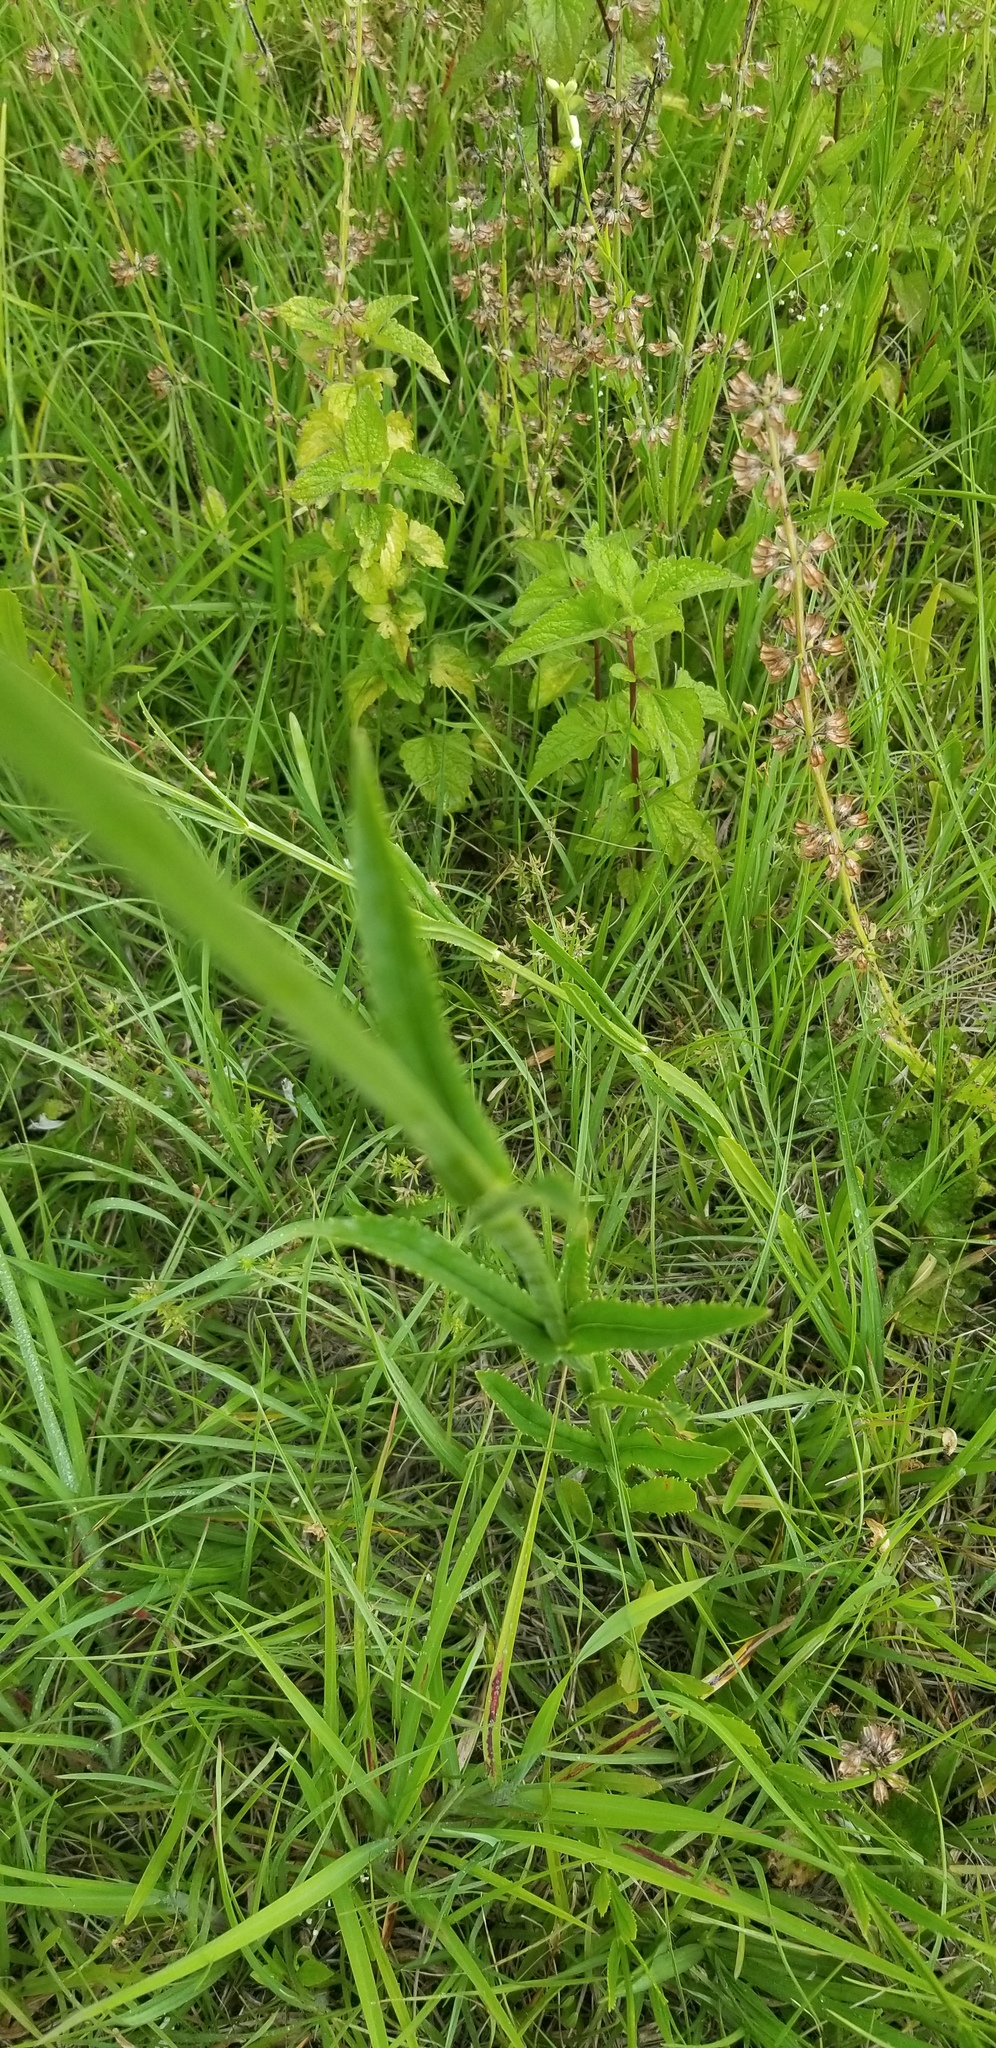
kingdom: Plantae
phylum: Tracheophyta
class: Magnoliopsida
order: Lamiales
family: Lamiaceae
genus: Physostegia
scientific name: Physostegia angustifolia
